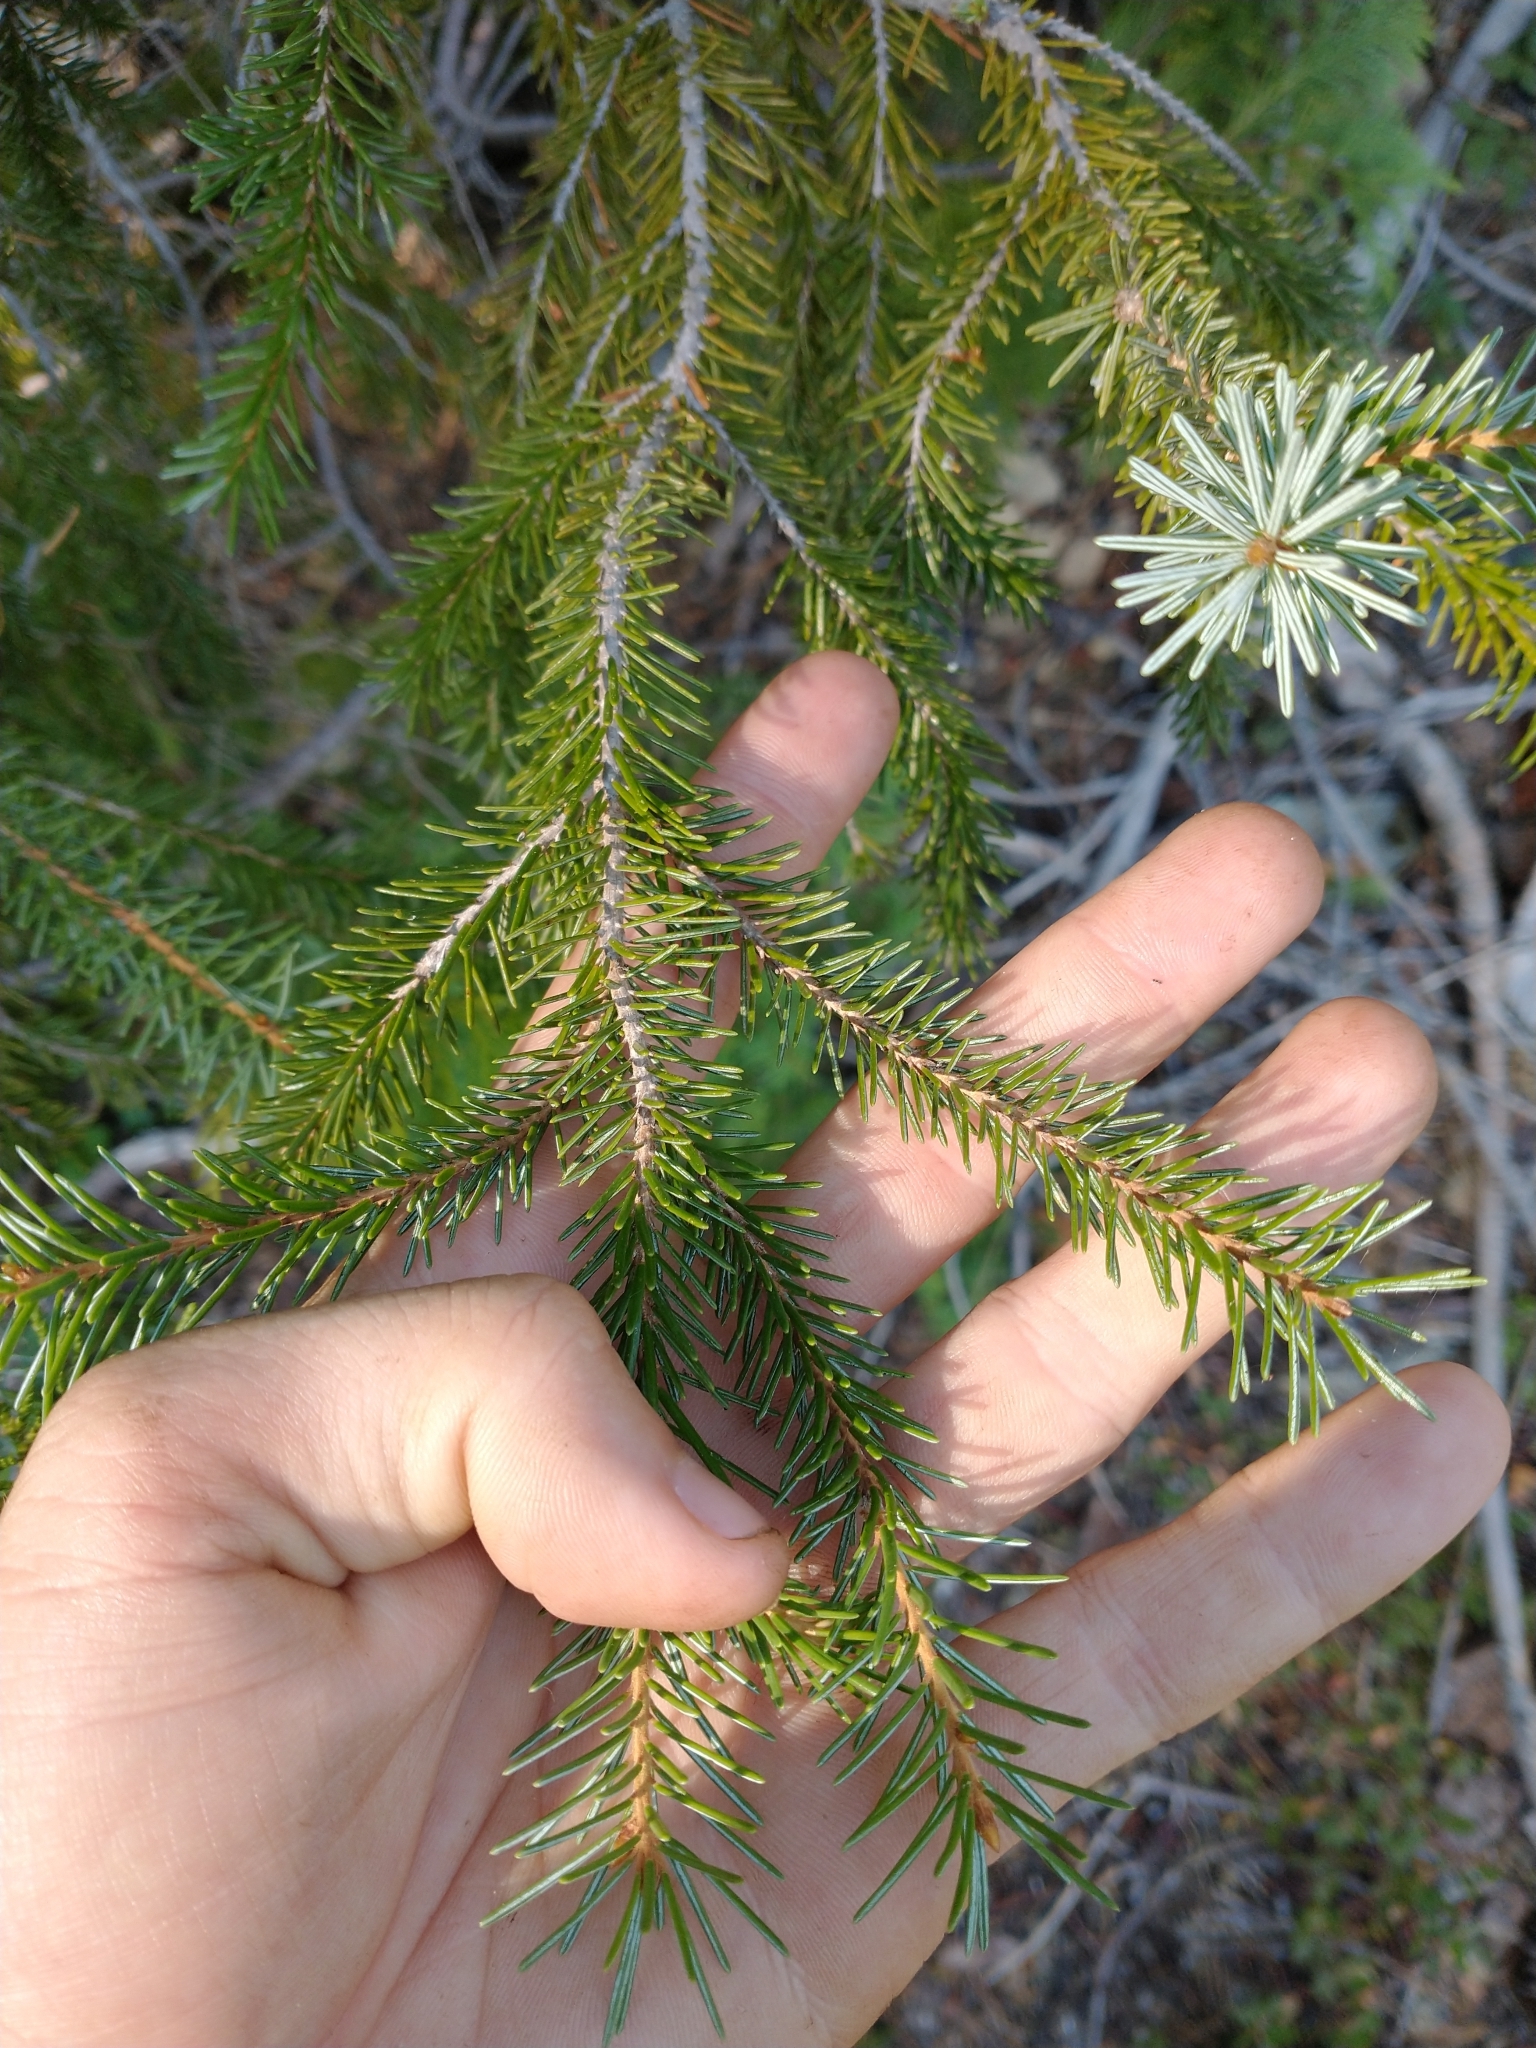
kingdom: Plantae
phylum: Tracheophyta
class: Pinopsida
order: Pinales
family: Pinaceae
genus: Picea
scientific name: Picea breweriana
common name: Brewer's spruce
